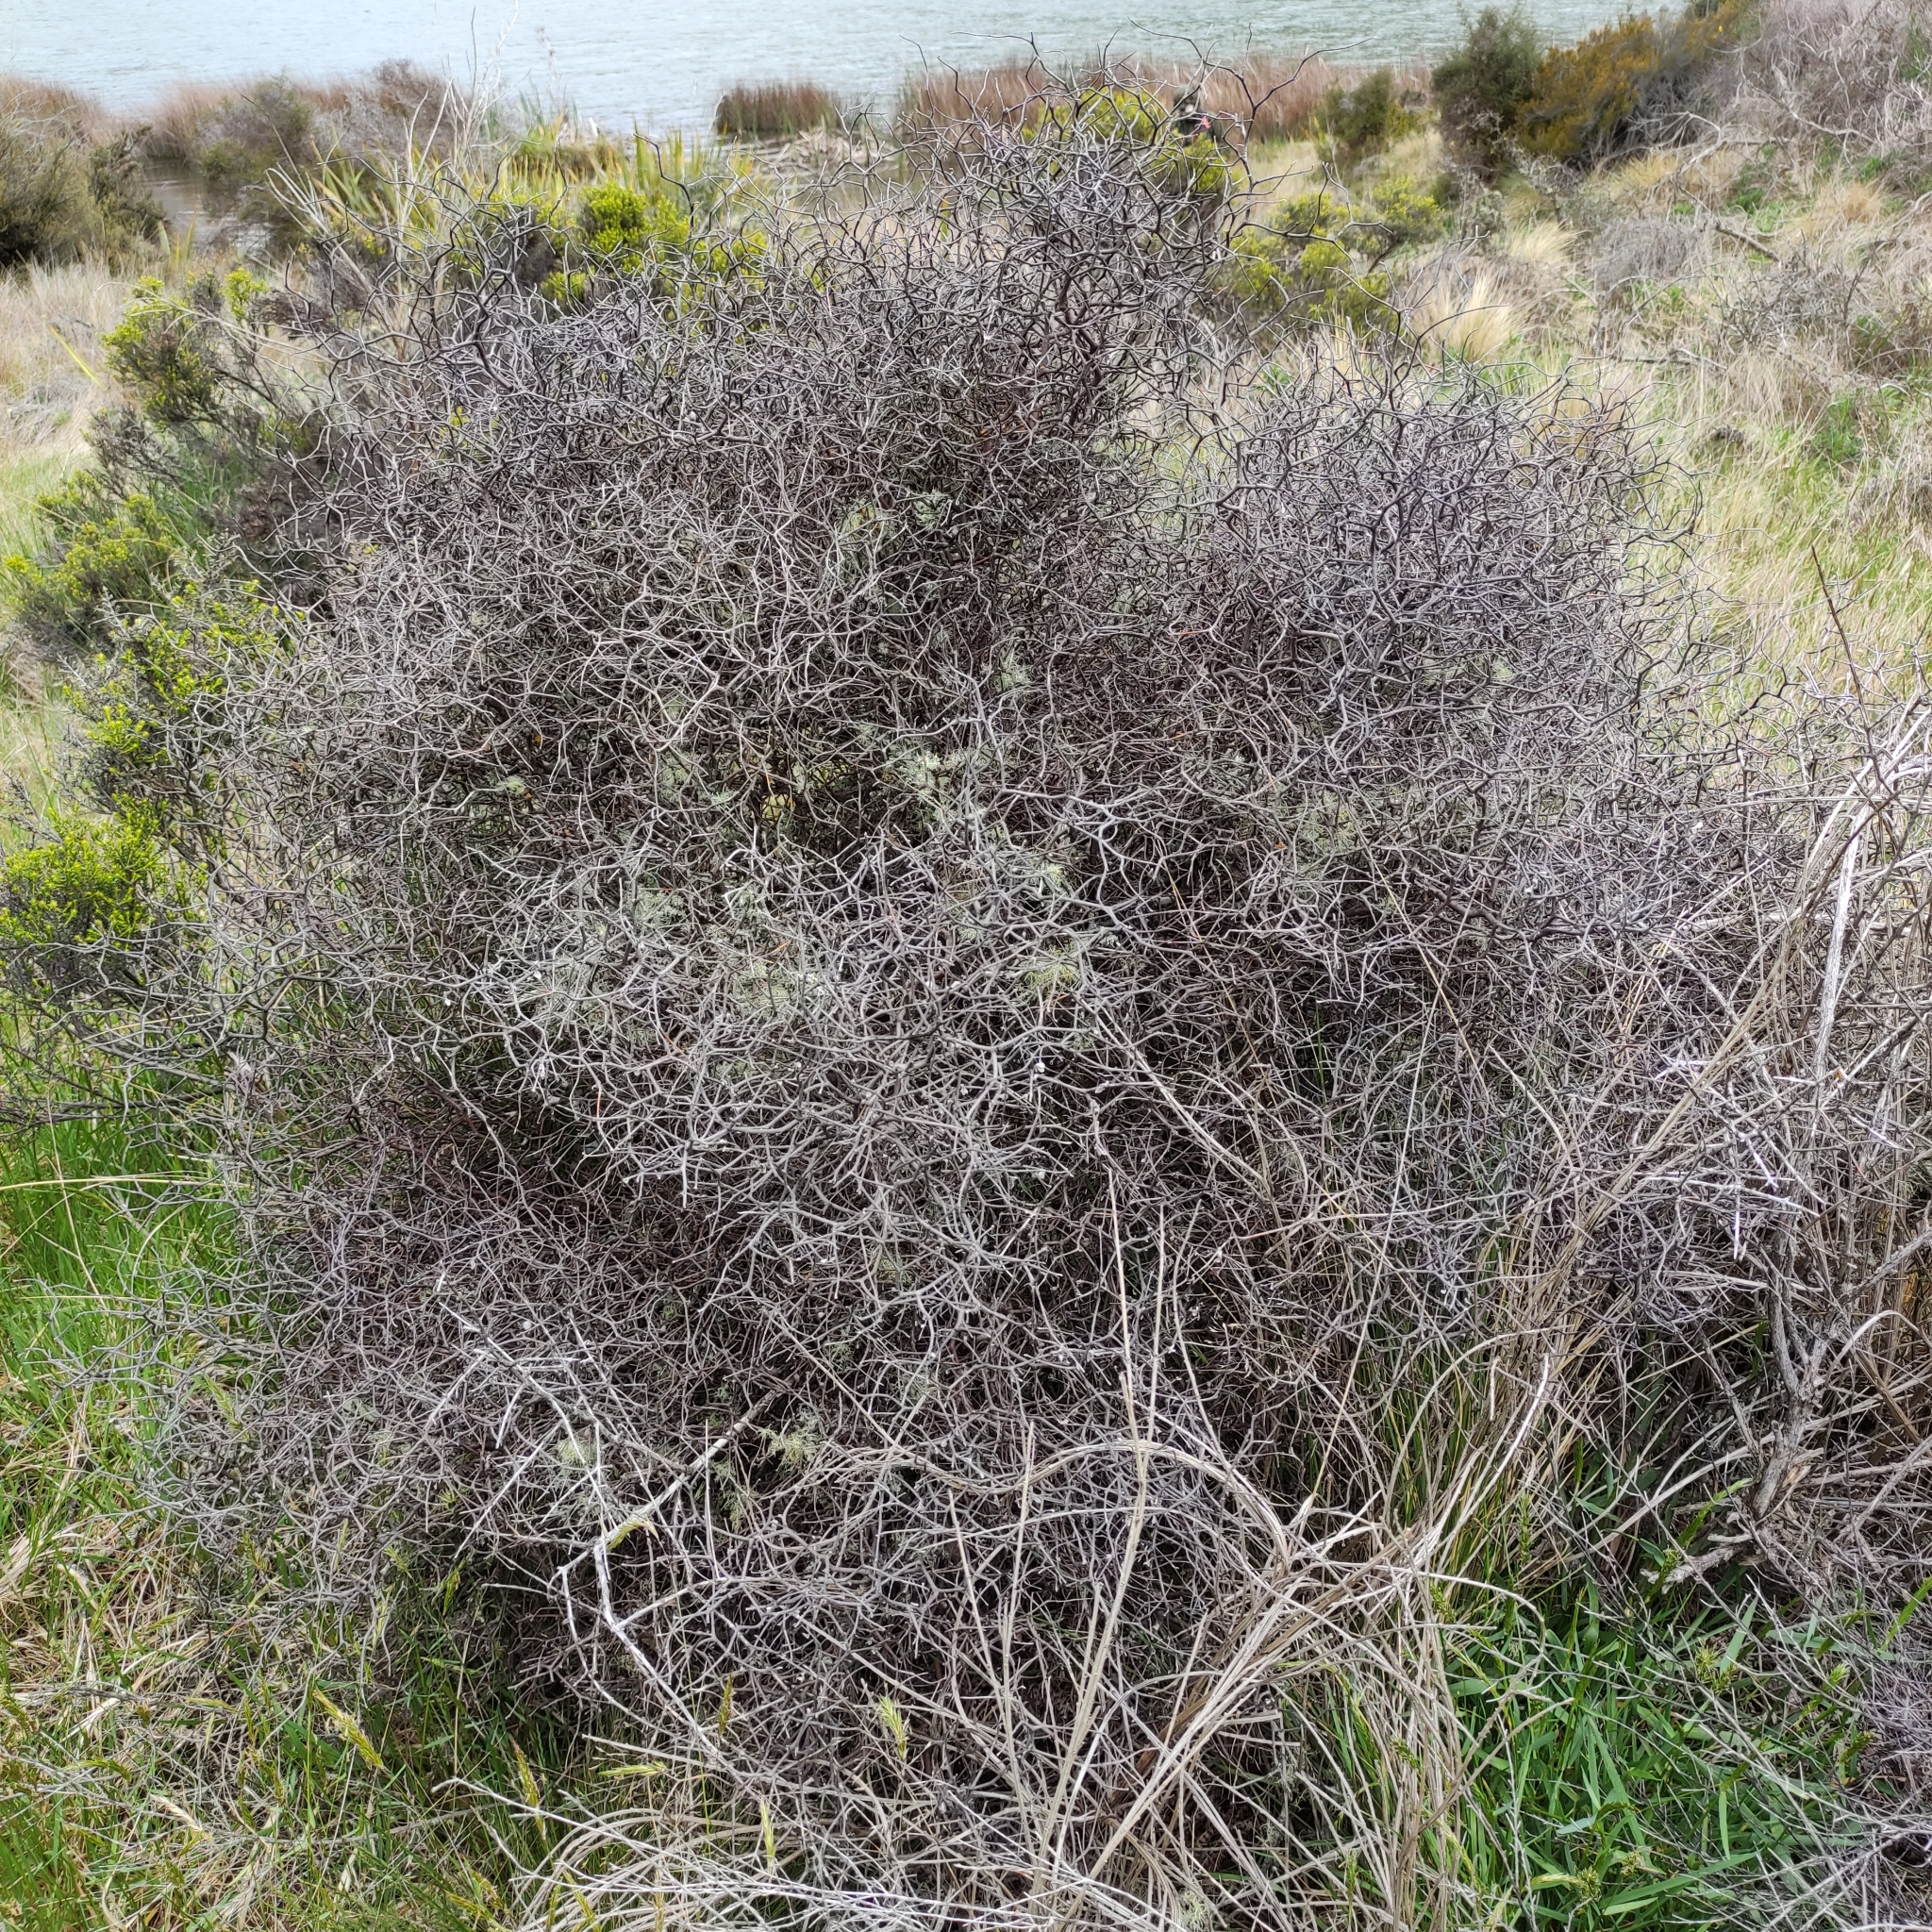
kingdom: Plantae
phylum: Tracheophyta
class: Magnoliopsida
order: Asterales
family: Argophyllaceae
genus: Corokia
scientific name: Corokia cotoneaster
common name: Wire nettingbush
